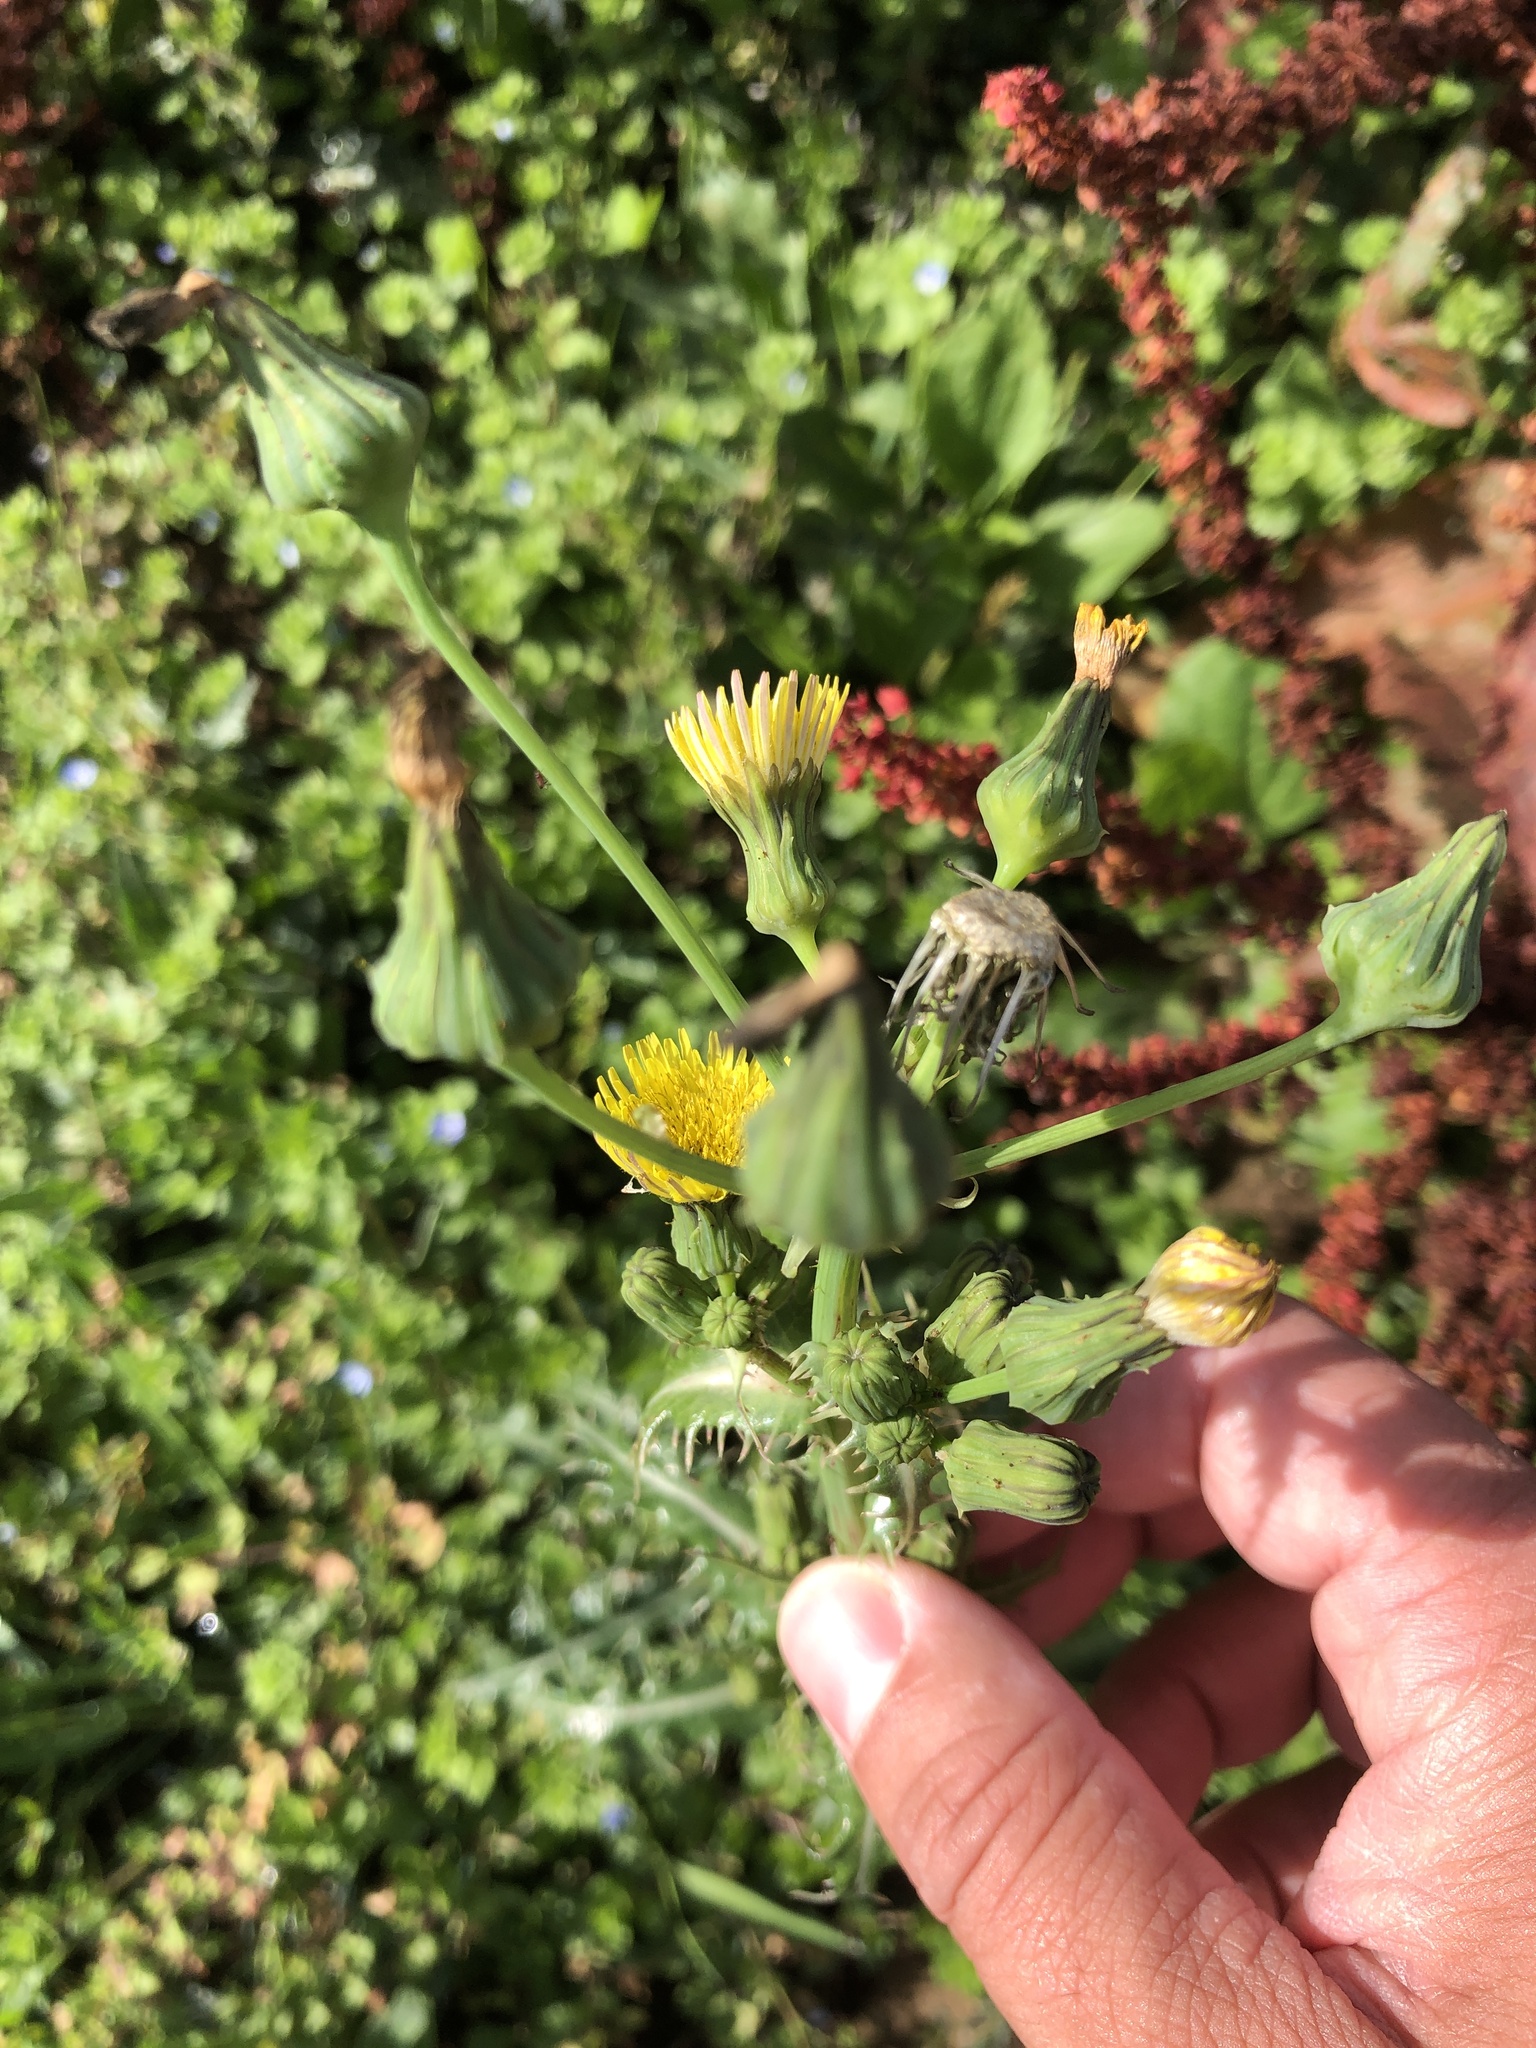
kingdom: Plantae
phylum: Tracheophyta
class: Magnoliopsida
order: Asterales
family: Asteraceae
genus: Sonchus
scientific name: Sonchus asper
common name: Prickly sow-thistle
